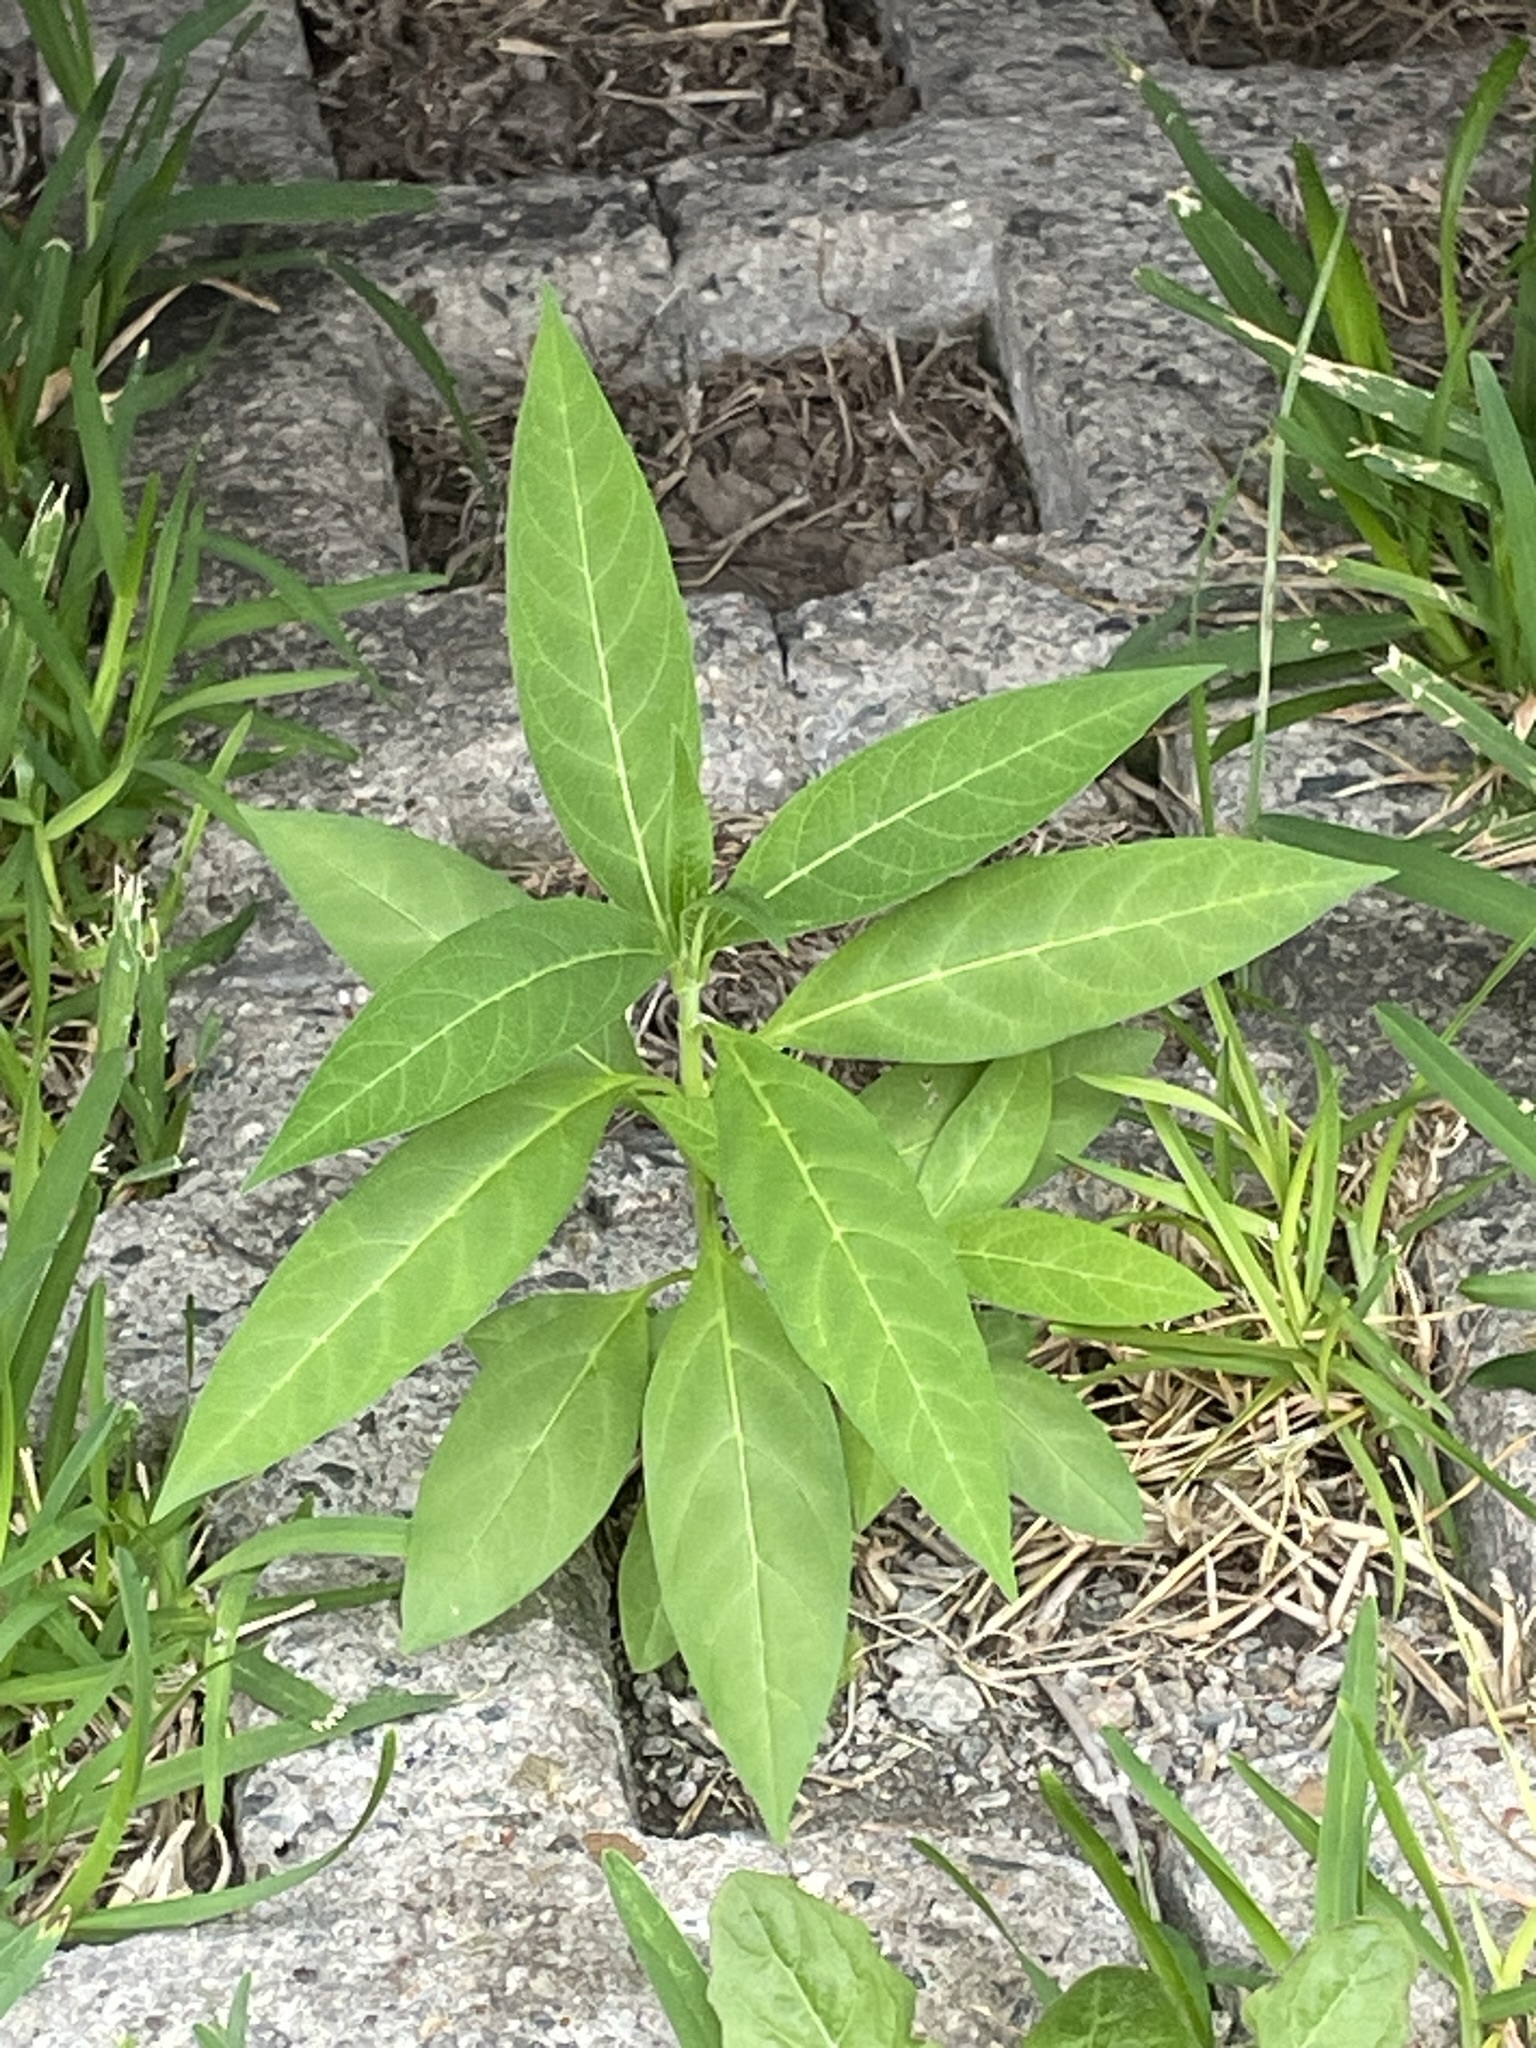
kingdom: Plantae
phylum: Tracheophyta
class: Magnoliopsida
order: Gentianales
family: Apocynaceae
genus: Asclepias
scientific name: Asclepias curassavica
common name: Bloodflower
